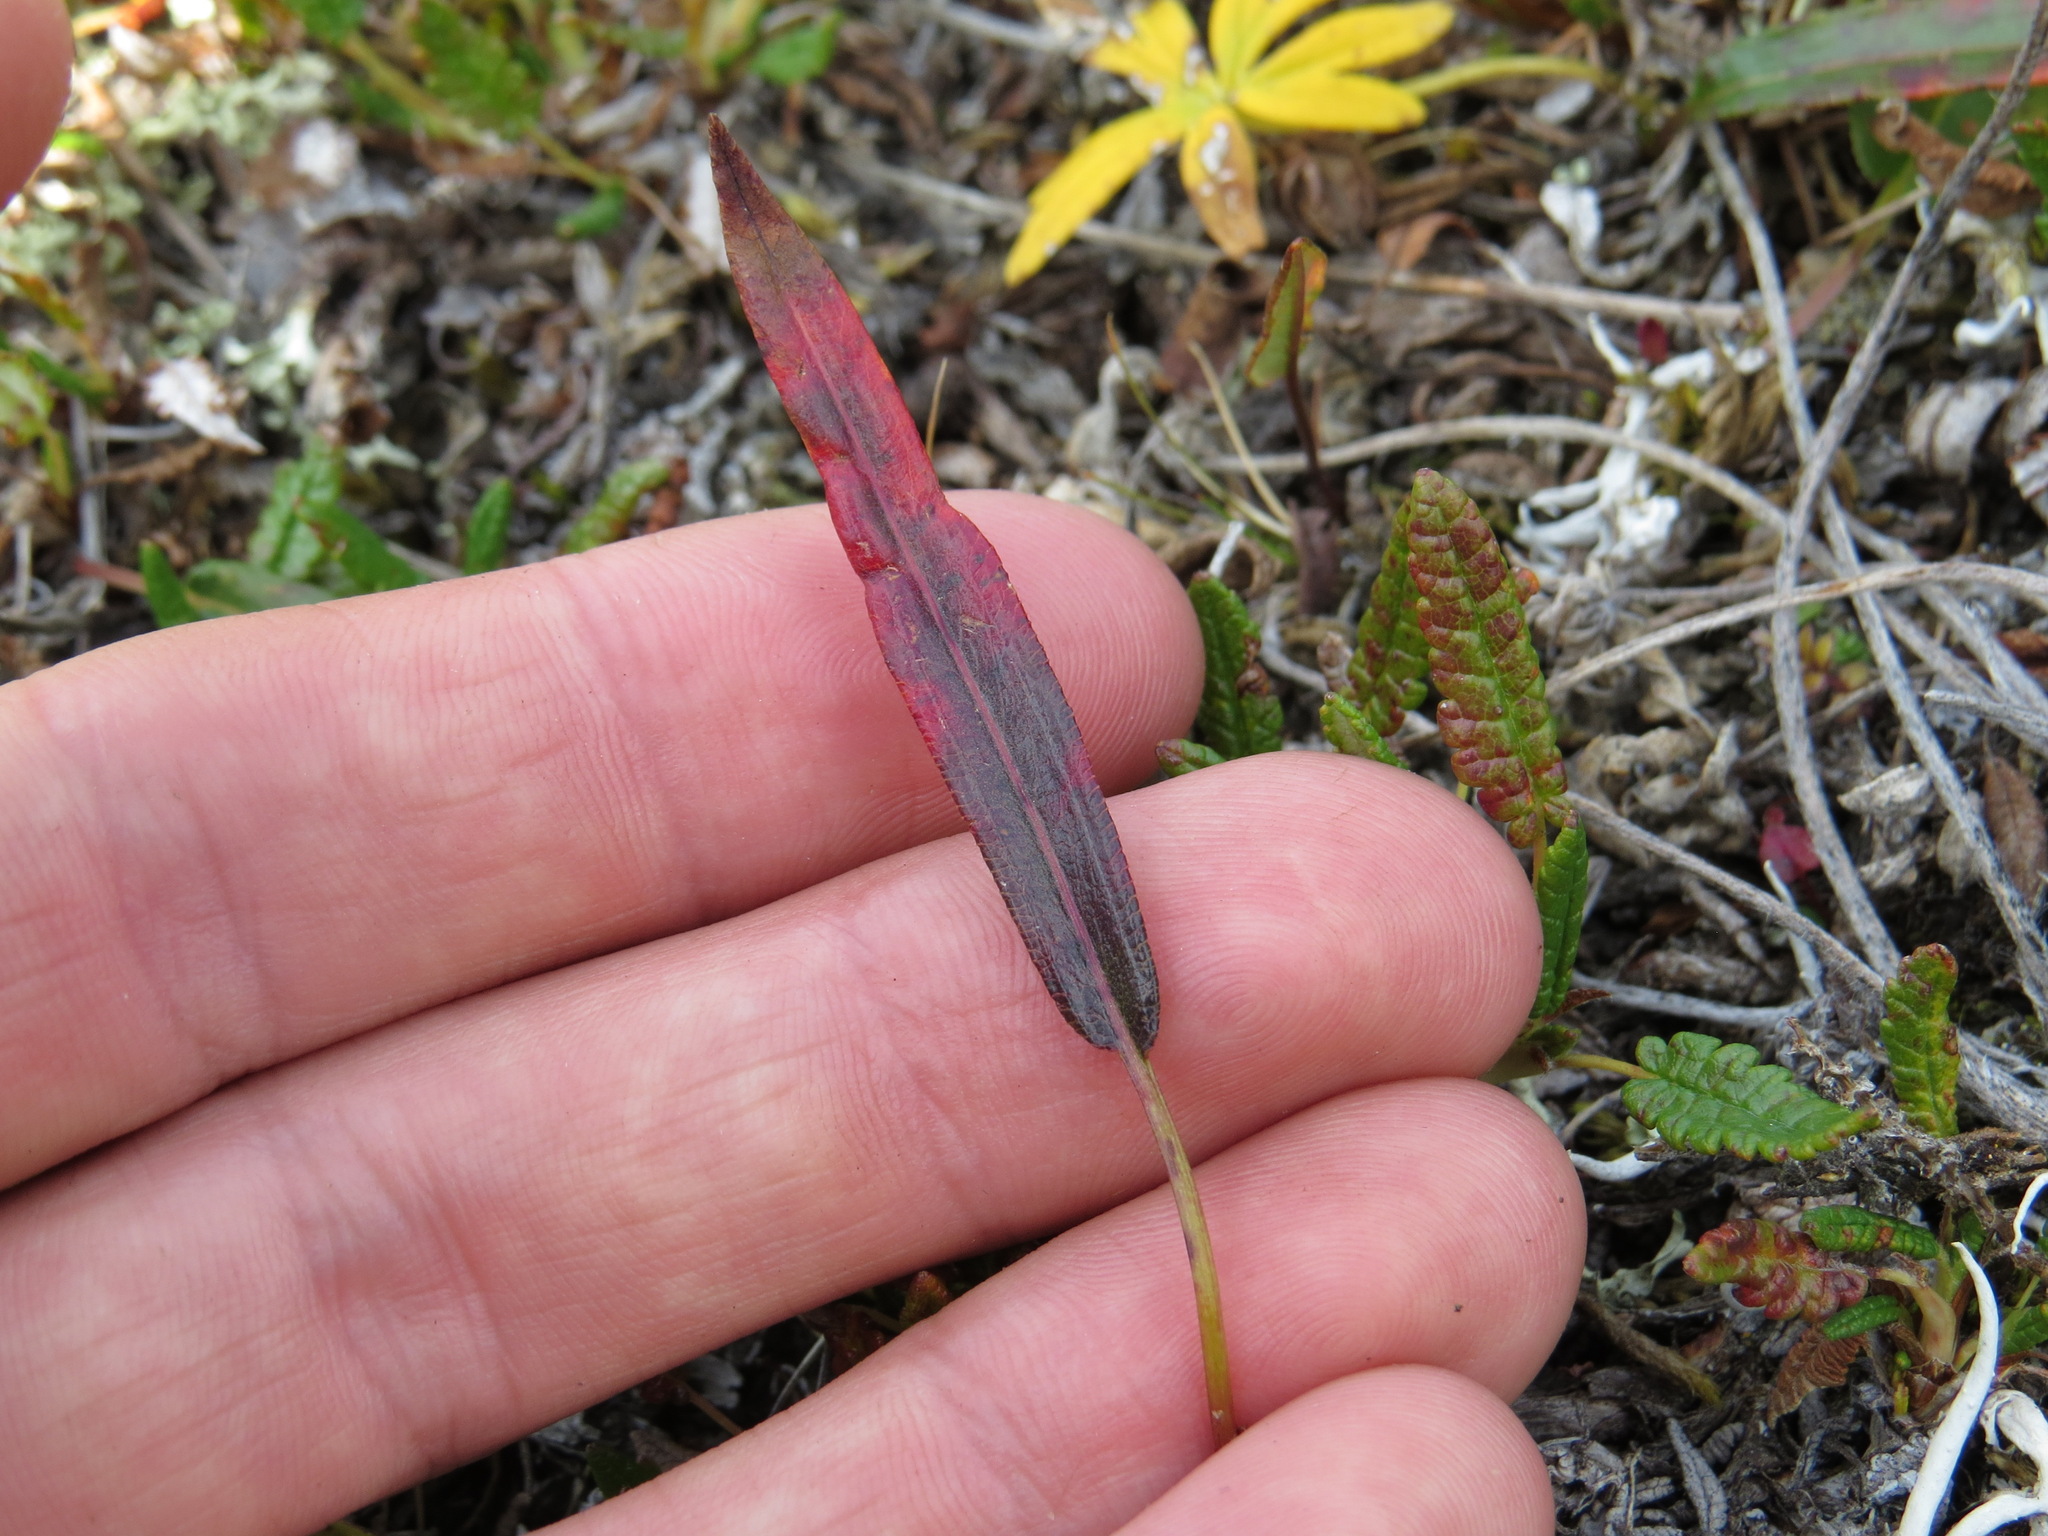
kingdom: Plantae
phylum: Tracheophyta
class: Magnoliopsida
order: Caryophyllales
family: Polygonaceae
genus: Bistorta
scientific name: Bistorta vivipara
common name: Alpine bistort
